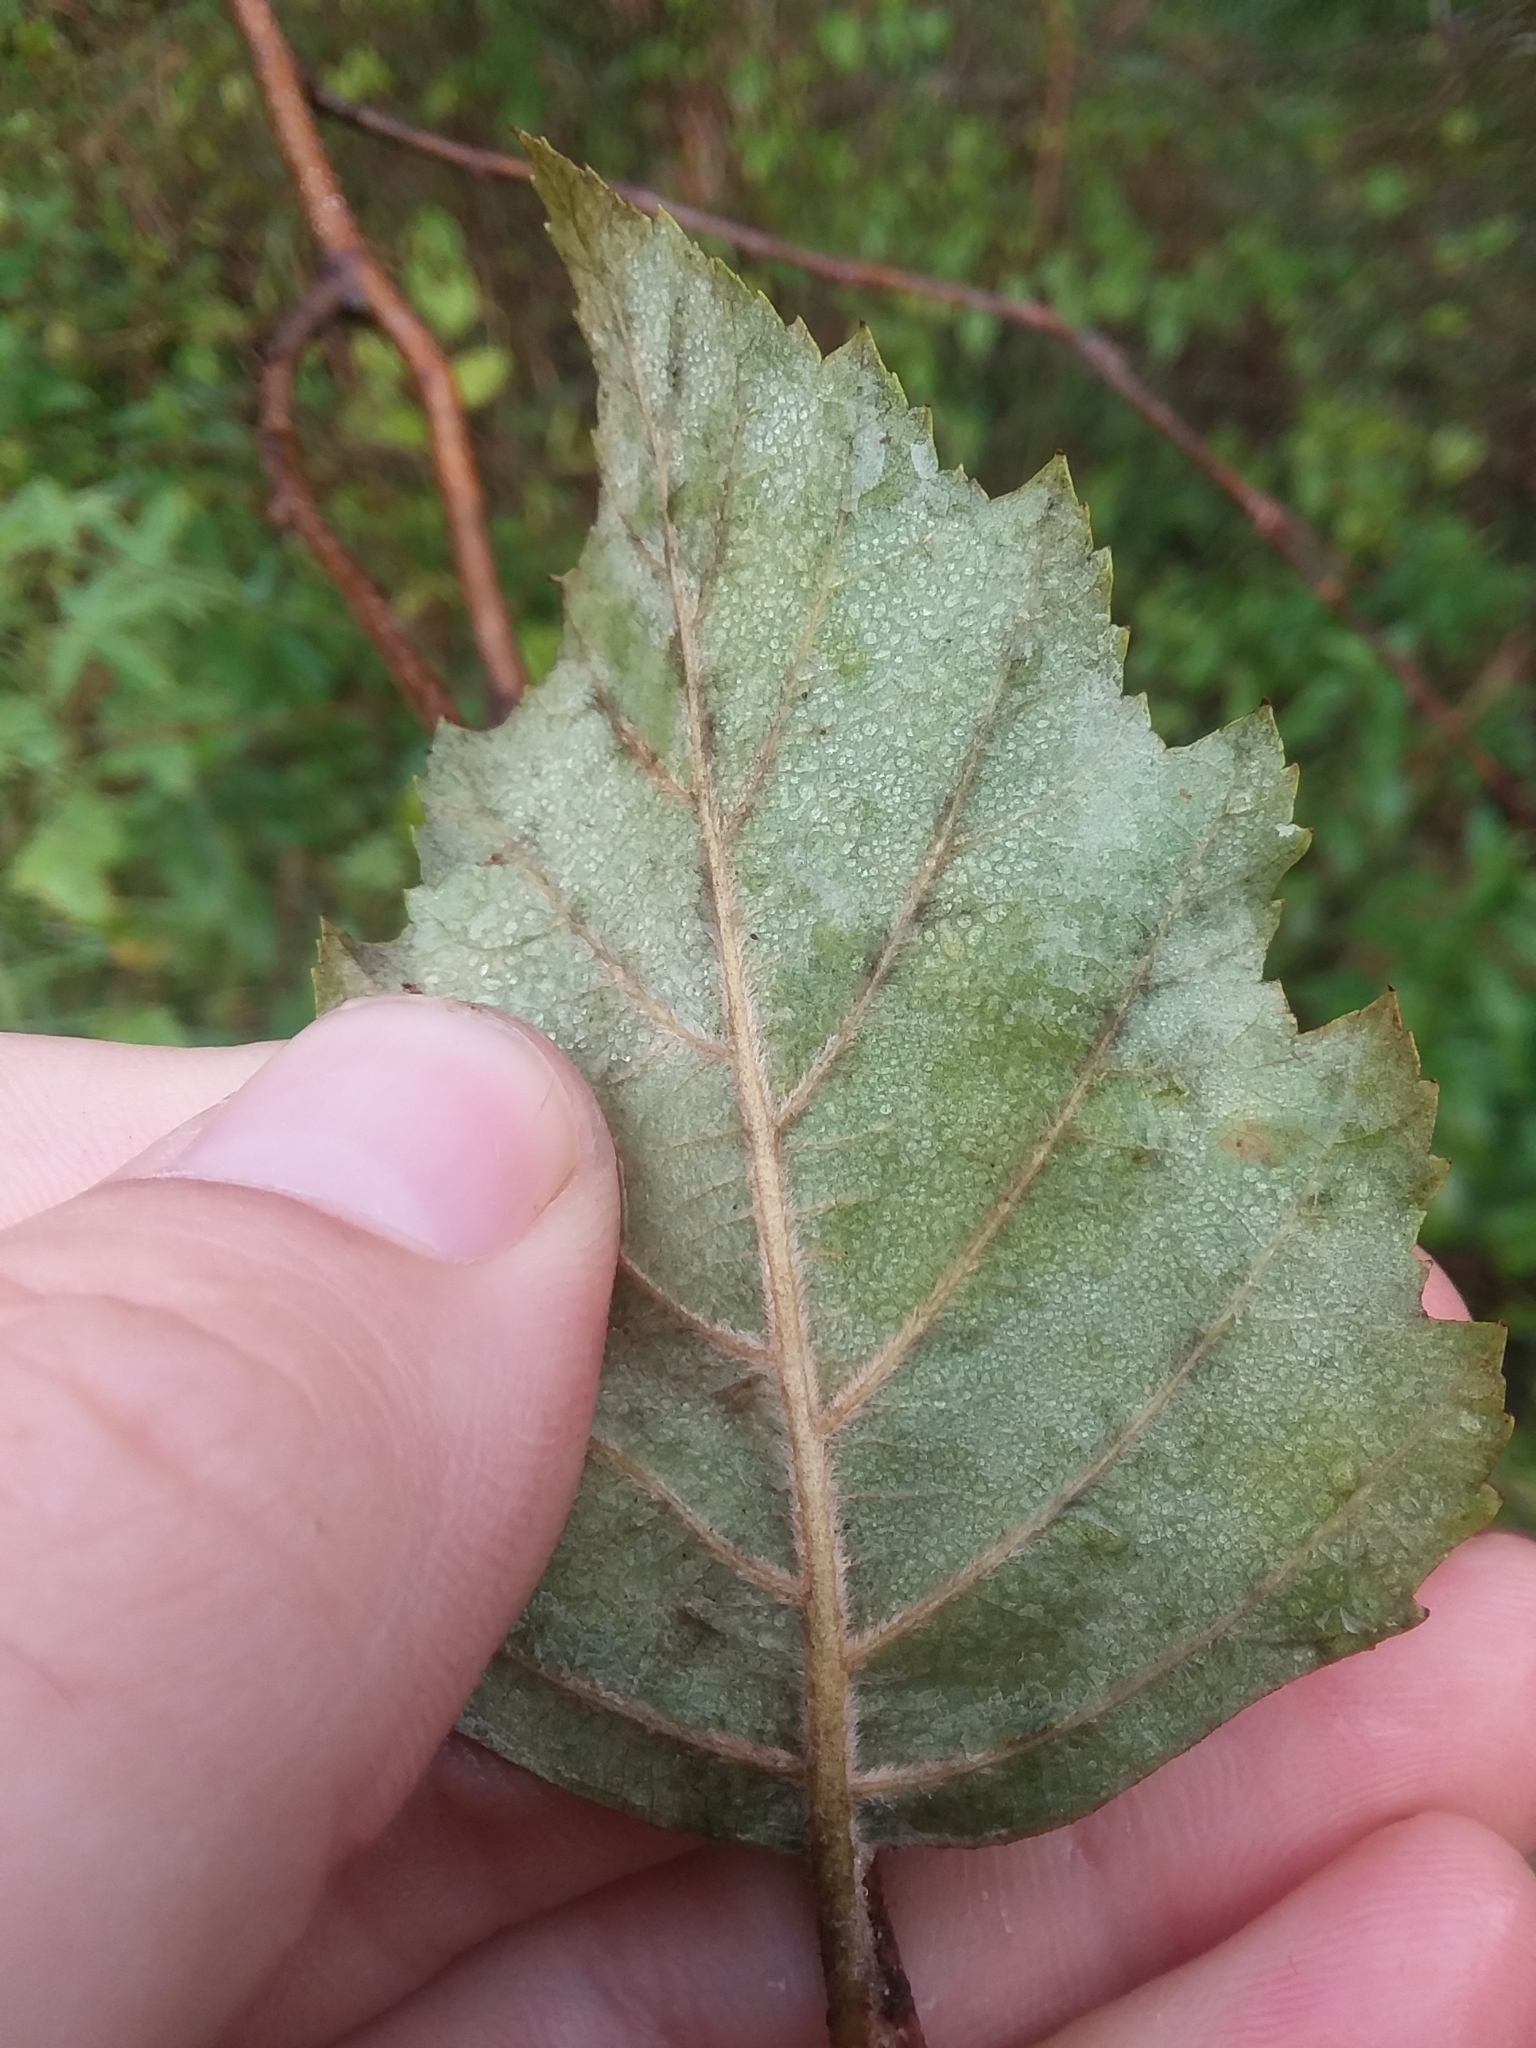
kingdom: Plantae
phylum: Tracheophyta
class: Magnoliopsida
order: Fagales
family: Betulaceae
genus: Betula
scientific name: Betula nigra
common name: Black birch
